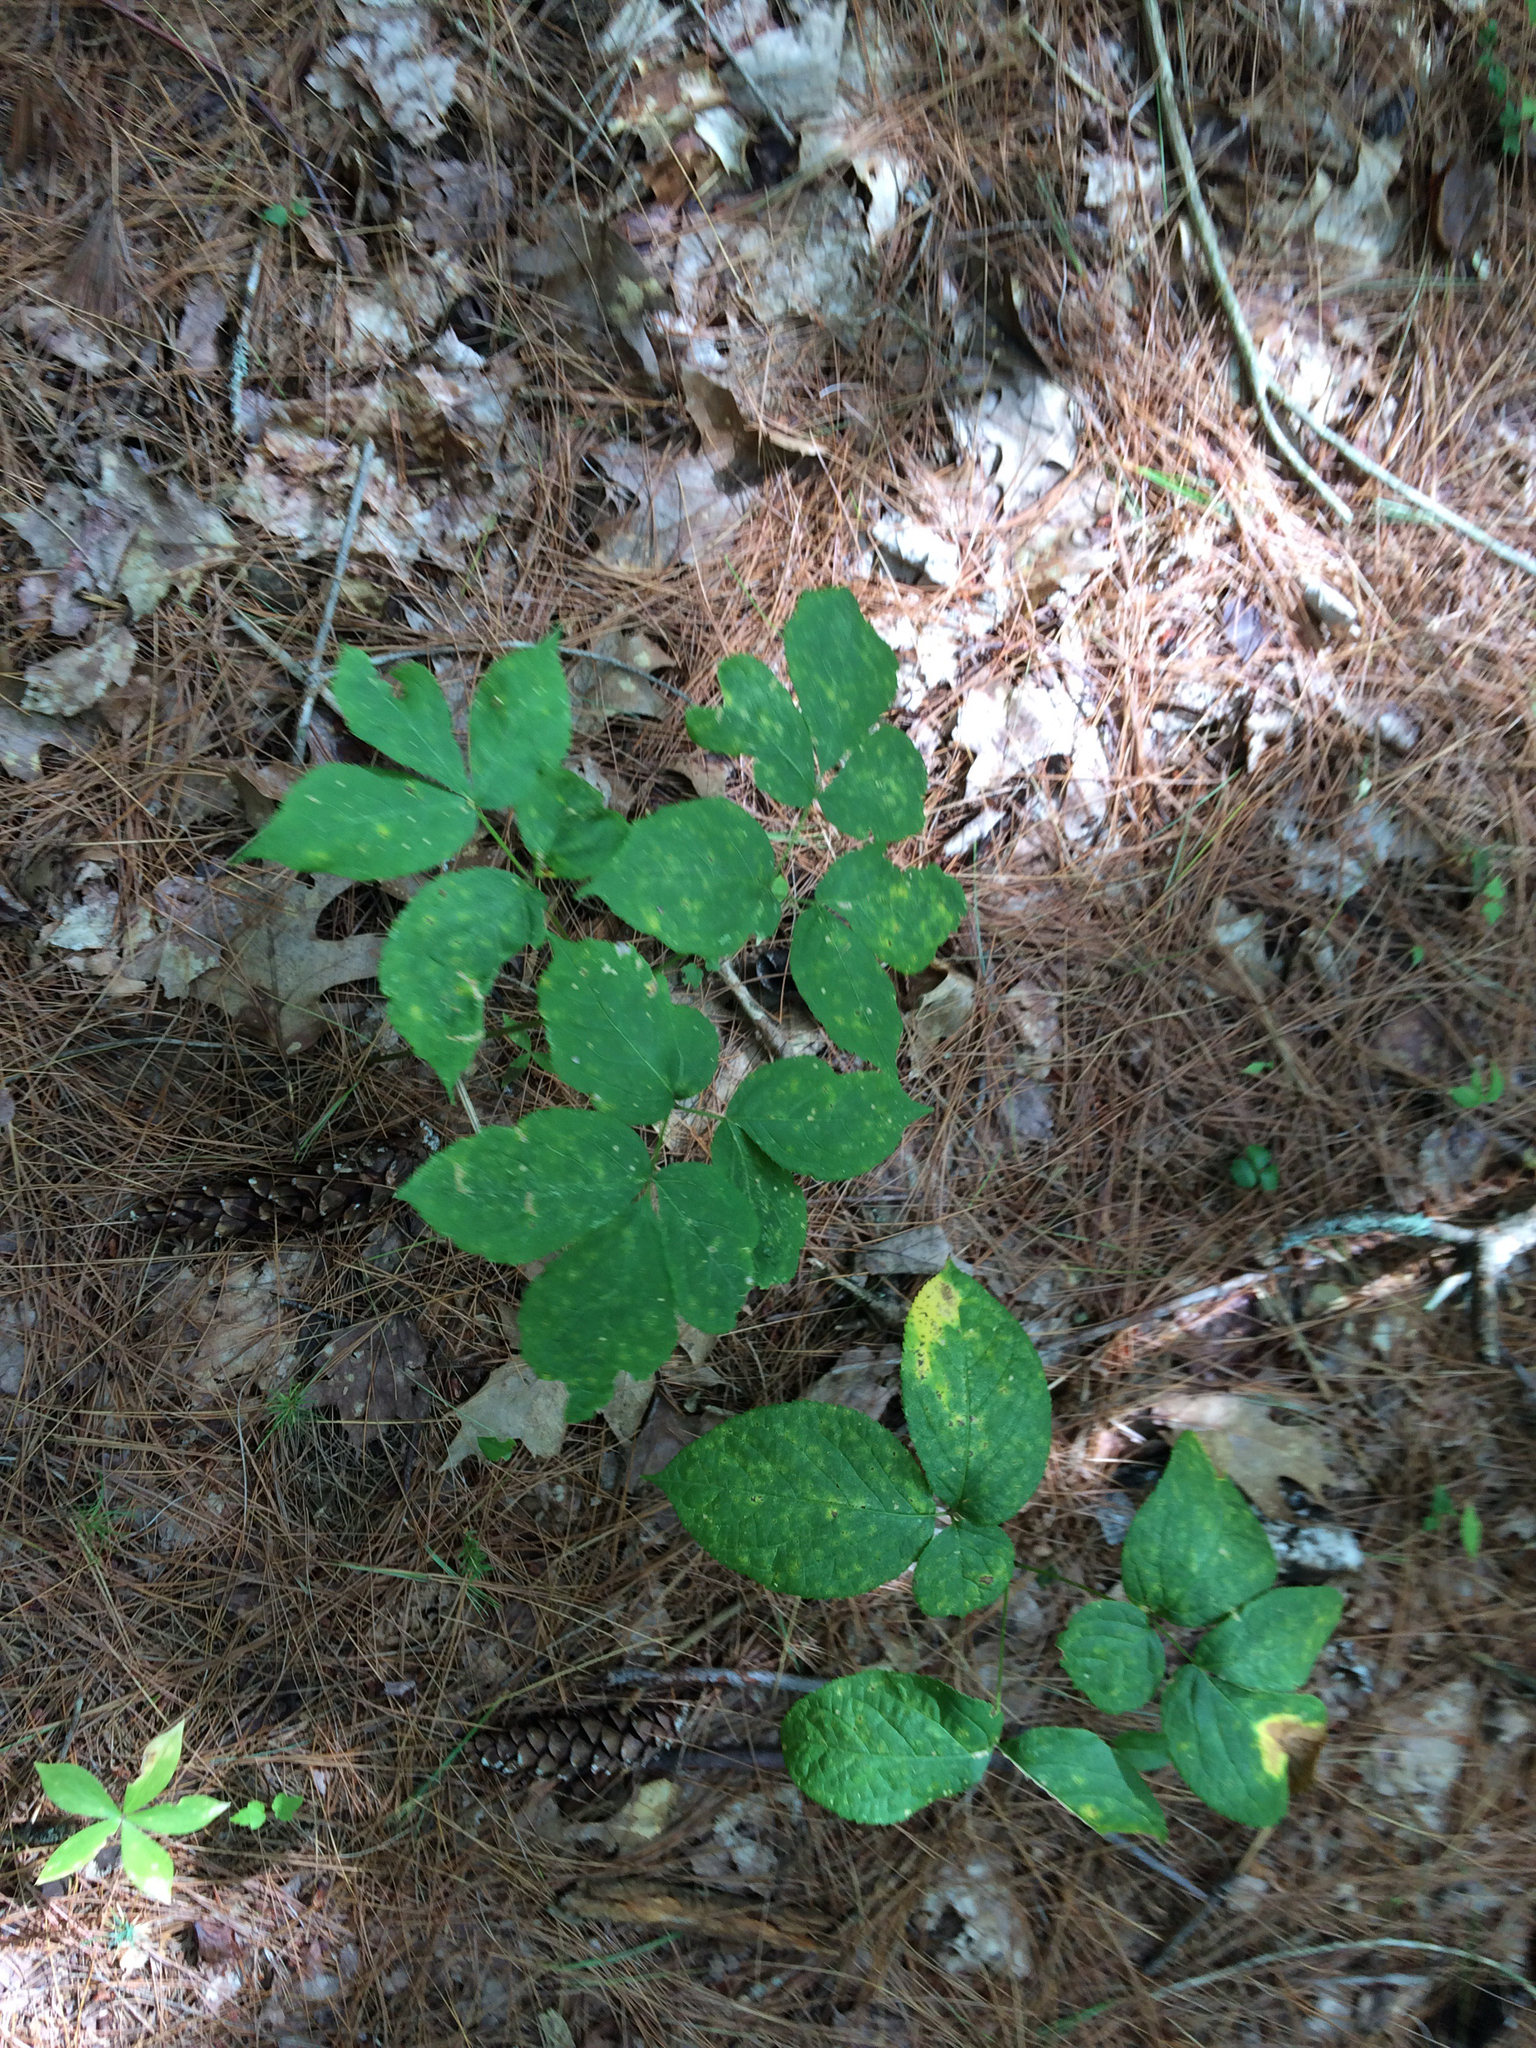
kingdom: Plantae
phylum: Tracheophyta
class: Magnoliopsida
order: Apiales
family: Araliaceae
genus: Aralia
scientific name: Aralia nudicaulis
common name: Wild sarsaparilla
